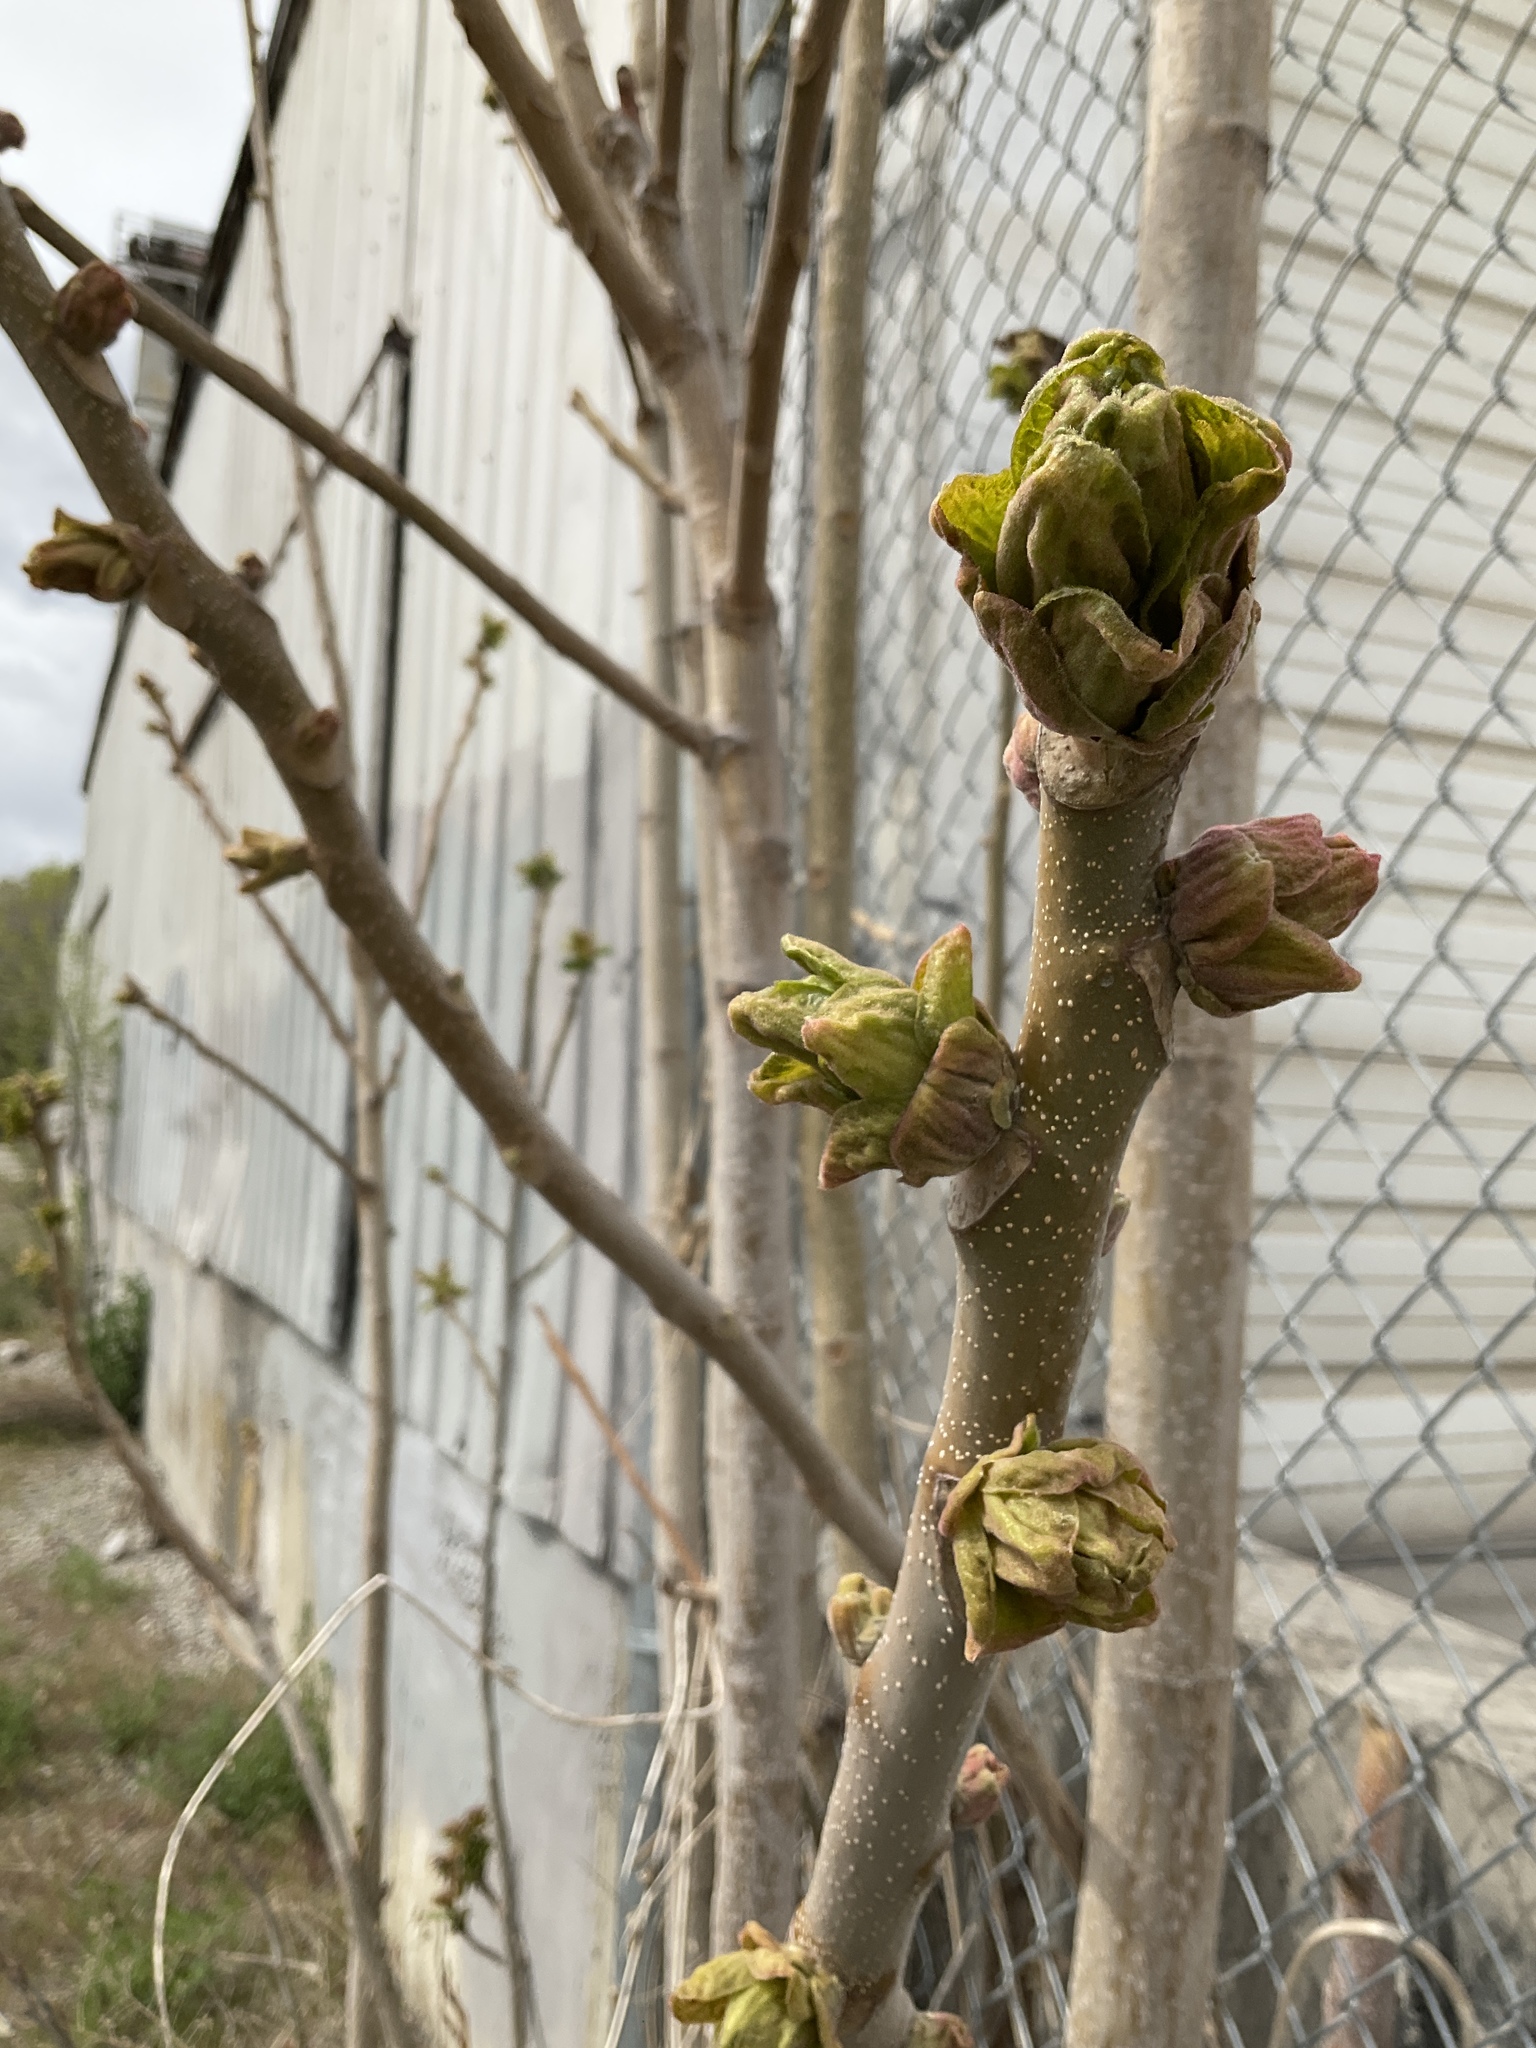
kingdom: Plantae
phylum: Tracheophyta
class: Magnoliopsida
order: Sapindales
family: Simaroubaceae
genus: Ailanthus
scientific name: Ailanthus altissima
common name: Tree-of-heaven
